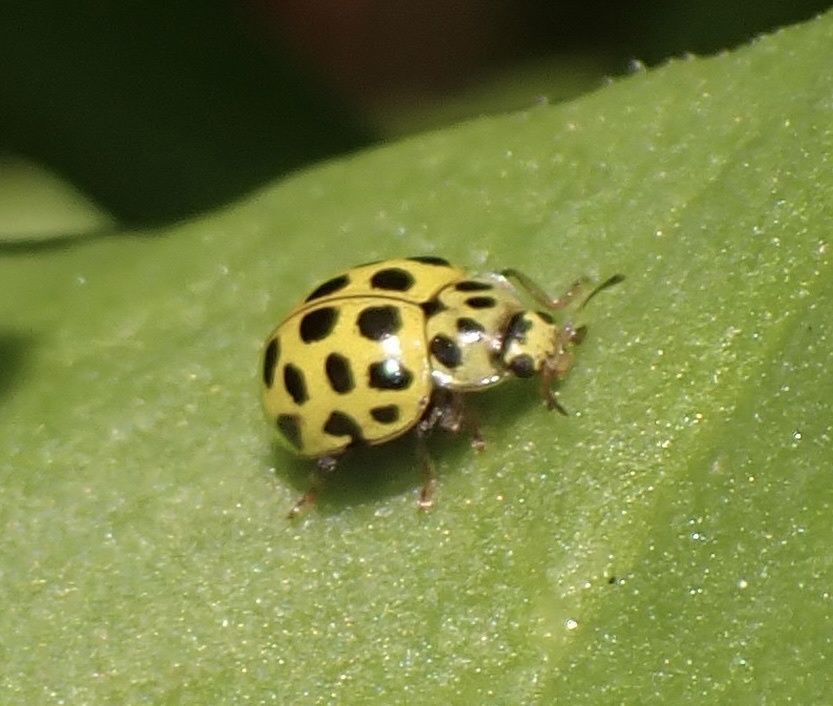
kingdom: Animalia
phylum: Arthropoda
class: Insecta
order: Coleoptera
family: Coccinellidae
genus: Psyllobora
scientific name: Psyllobora vigintiduopunctata
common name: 22-spot ladybird
